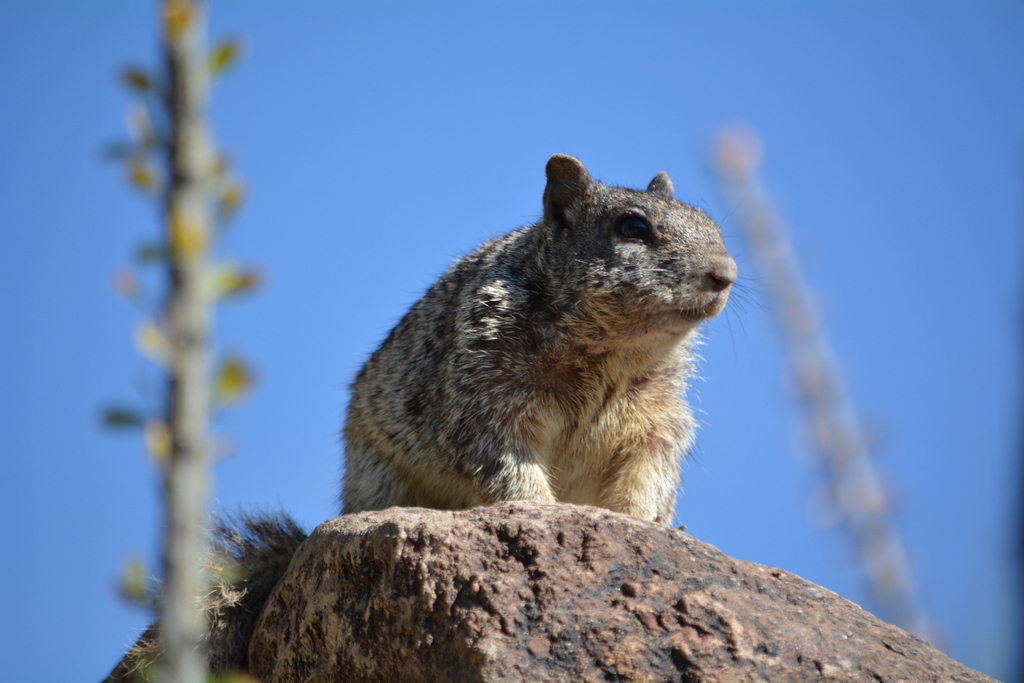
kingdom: Animalia
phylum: Chordata
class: Mammalia
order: Rodentia
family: Sciuridae
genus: Otospermophilus
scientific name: Otospermophilus variegatus
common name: Rock squirrel
